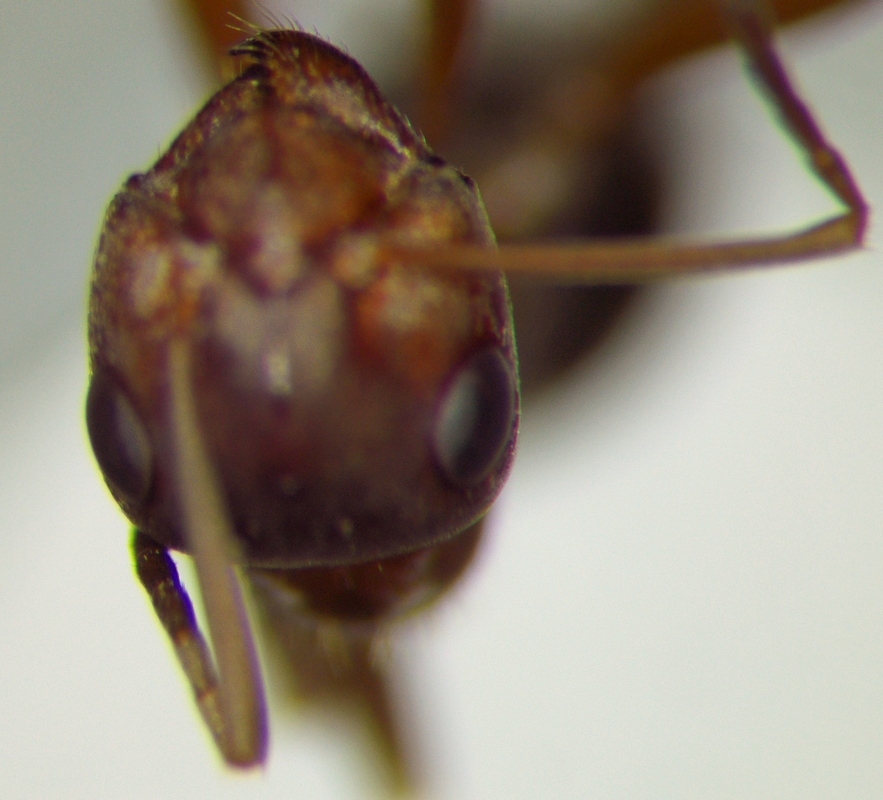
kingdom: Animalia
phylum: Arthropoda
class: Insecta
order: Hymenoptera
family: Formicidae
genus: Formica
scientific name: Formica subpilosa
